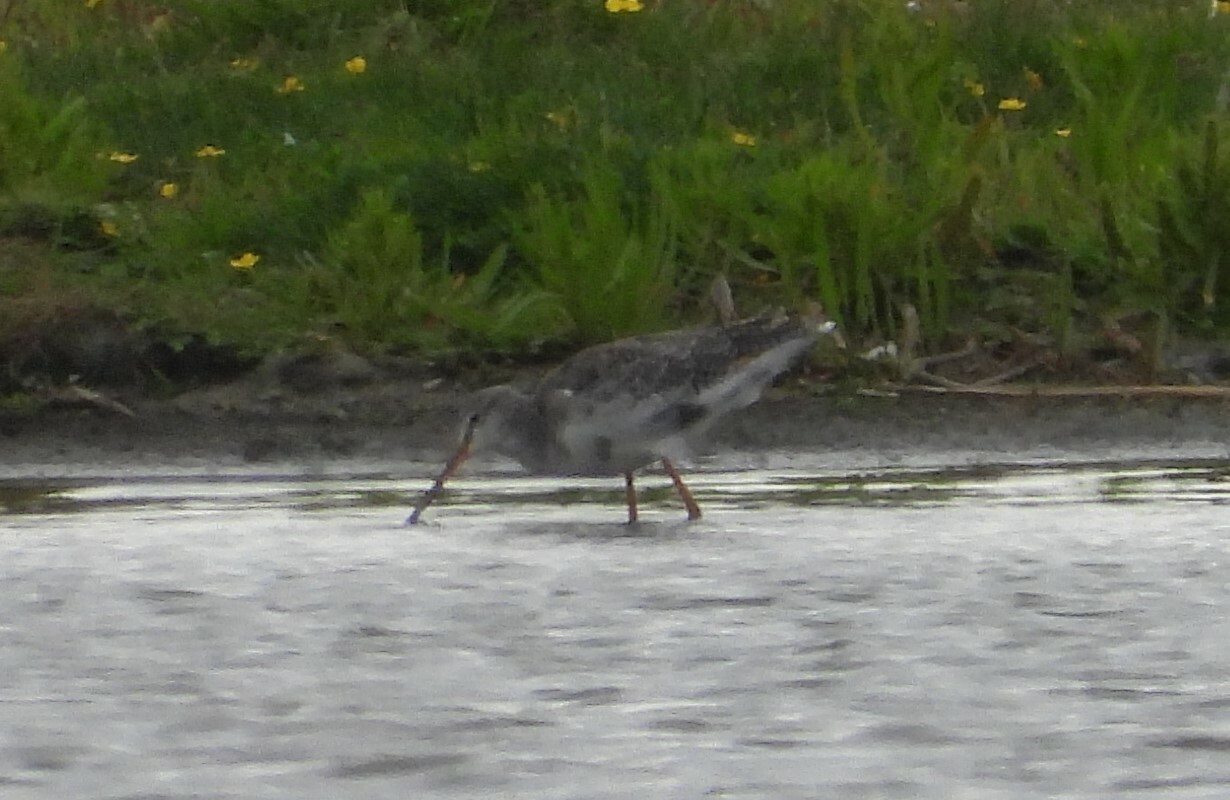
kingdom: Animalia
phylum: Chordata
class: Aves
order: Charadriiformes
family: Scolopacidae
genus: Tringa
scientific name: Tringa erythropus
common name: Spotted redshank
